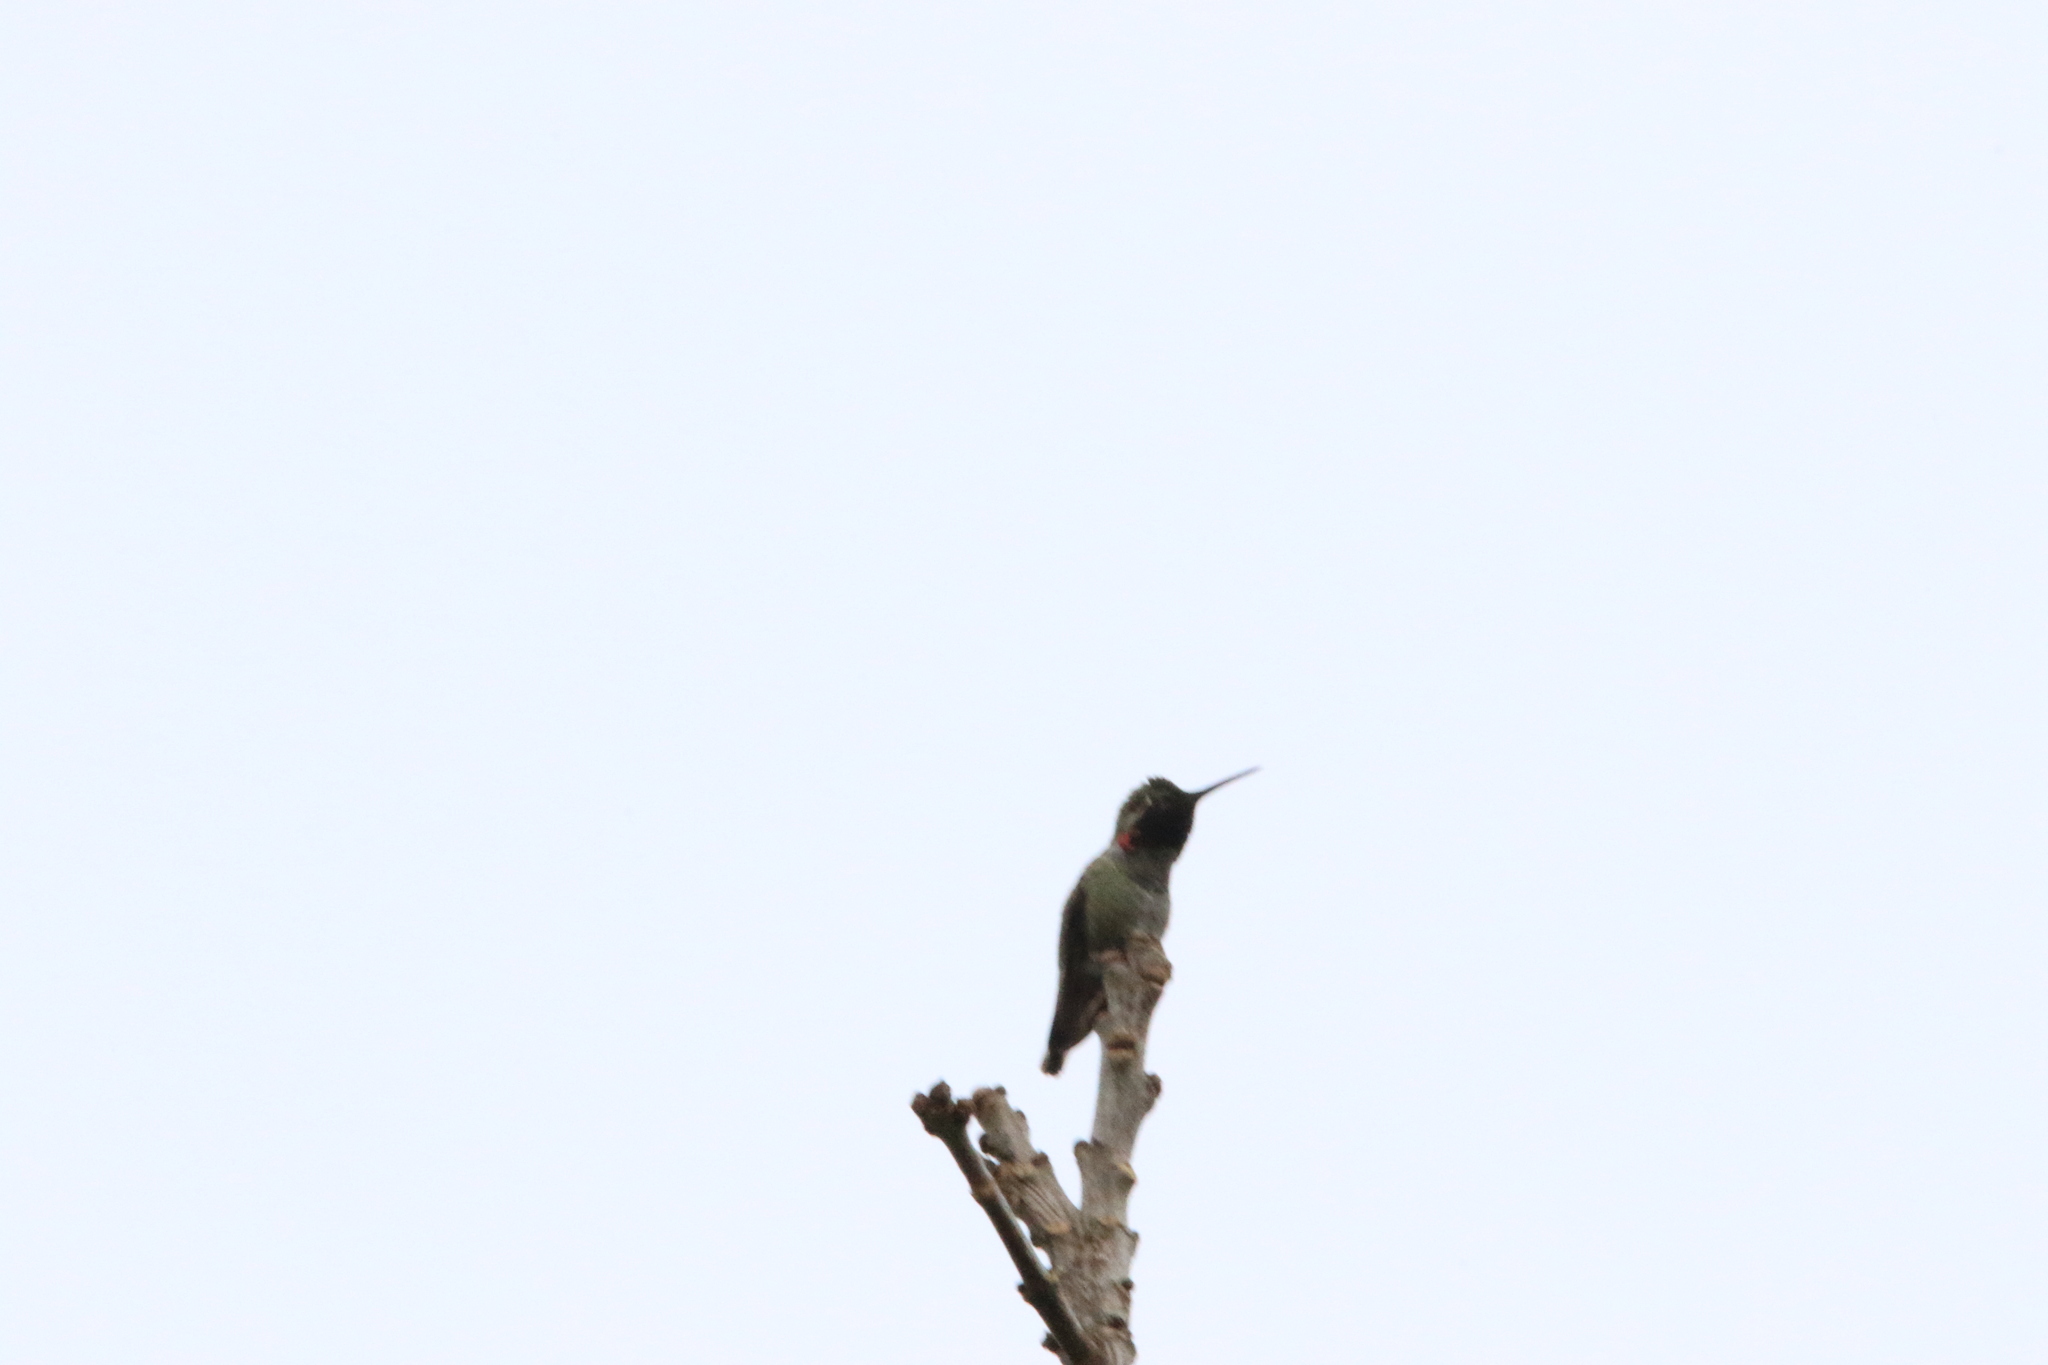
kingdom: Animalia
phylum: Chordata
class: Aves
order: Apodiformes
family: Trochilidae
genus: Calypte
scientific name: Calypte anna
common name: Anna's hummingbird
